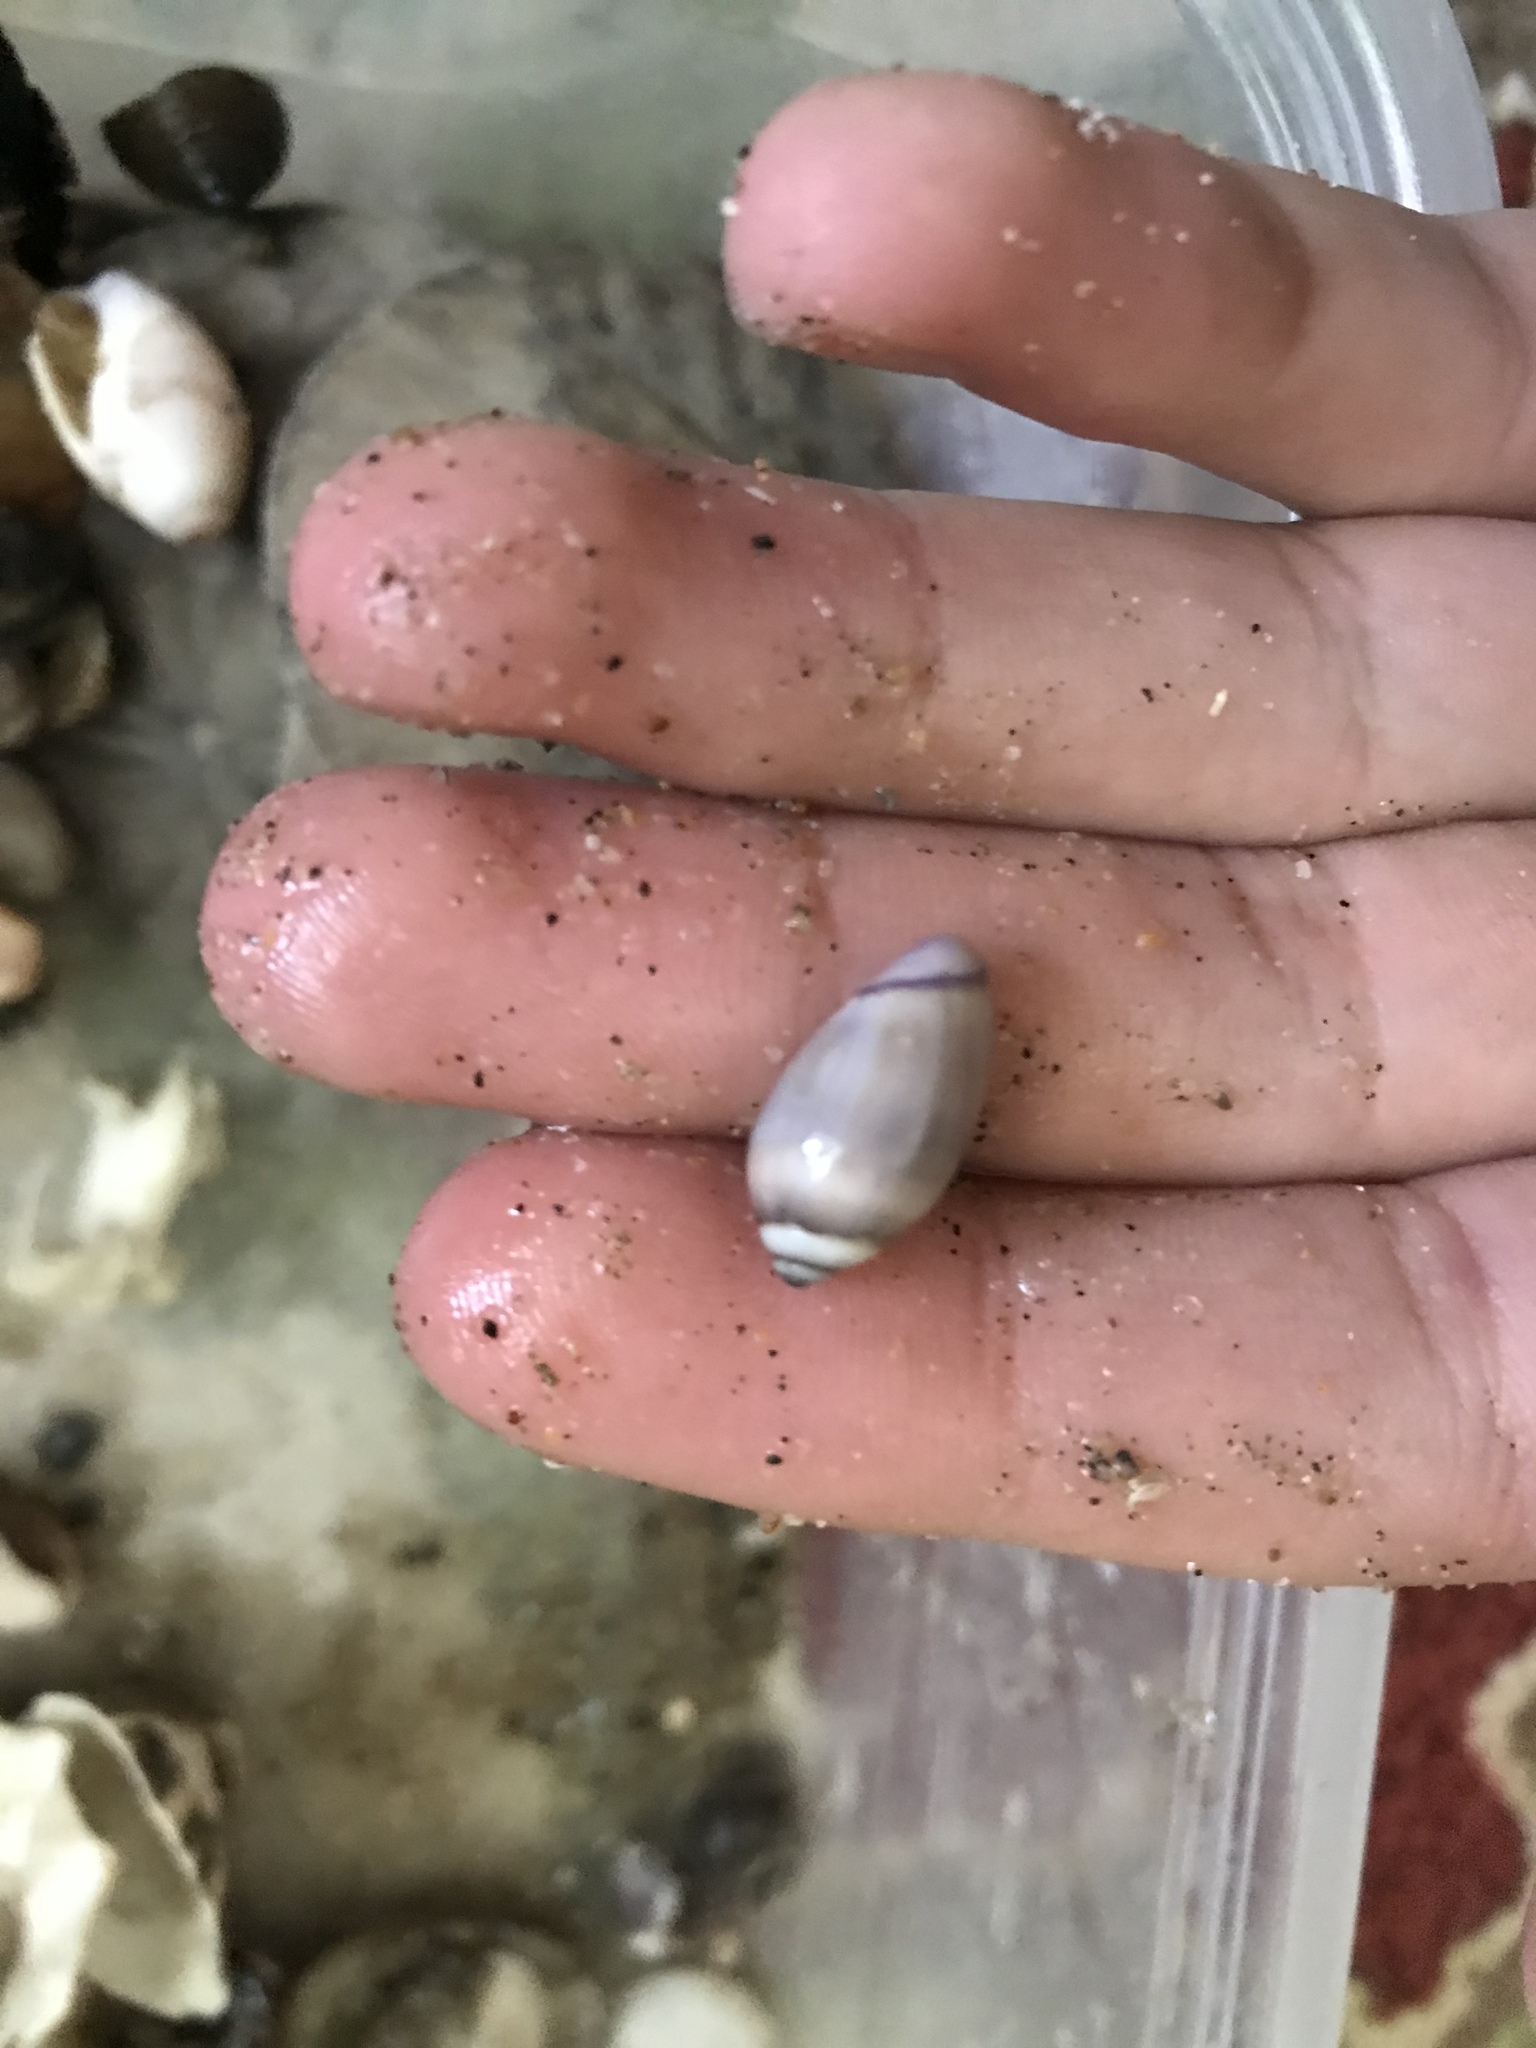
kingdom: Animalia
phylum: Mollusca
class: Gastropoda
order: Neogastropoda
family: Olividae
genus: Callianax
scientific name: Callianax biplicata
